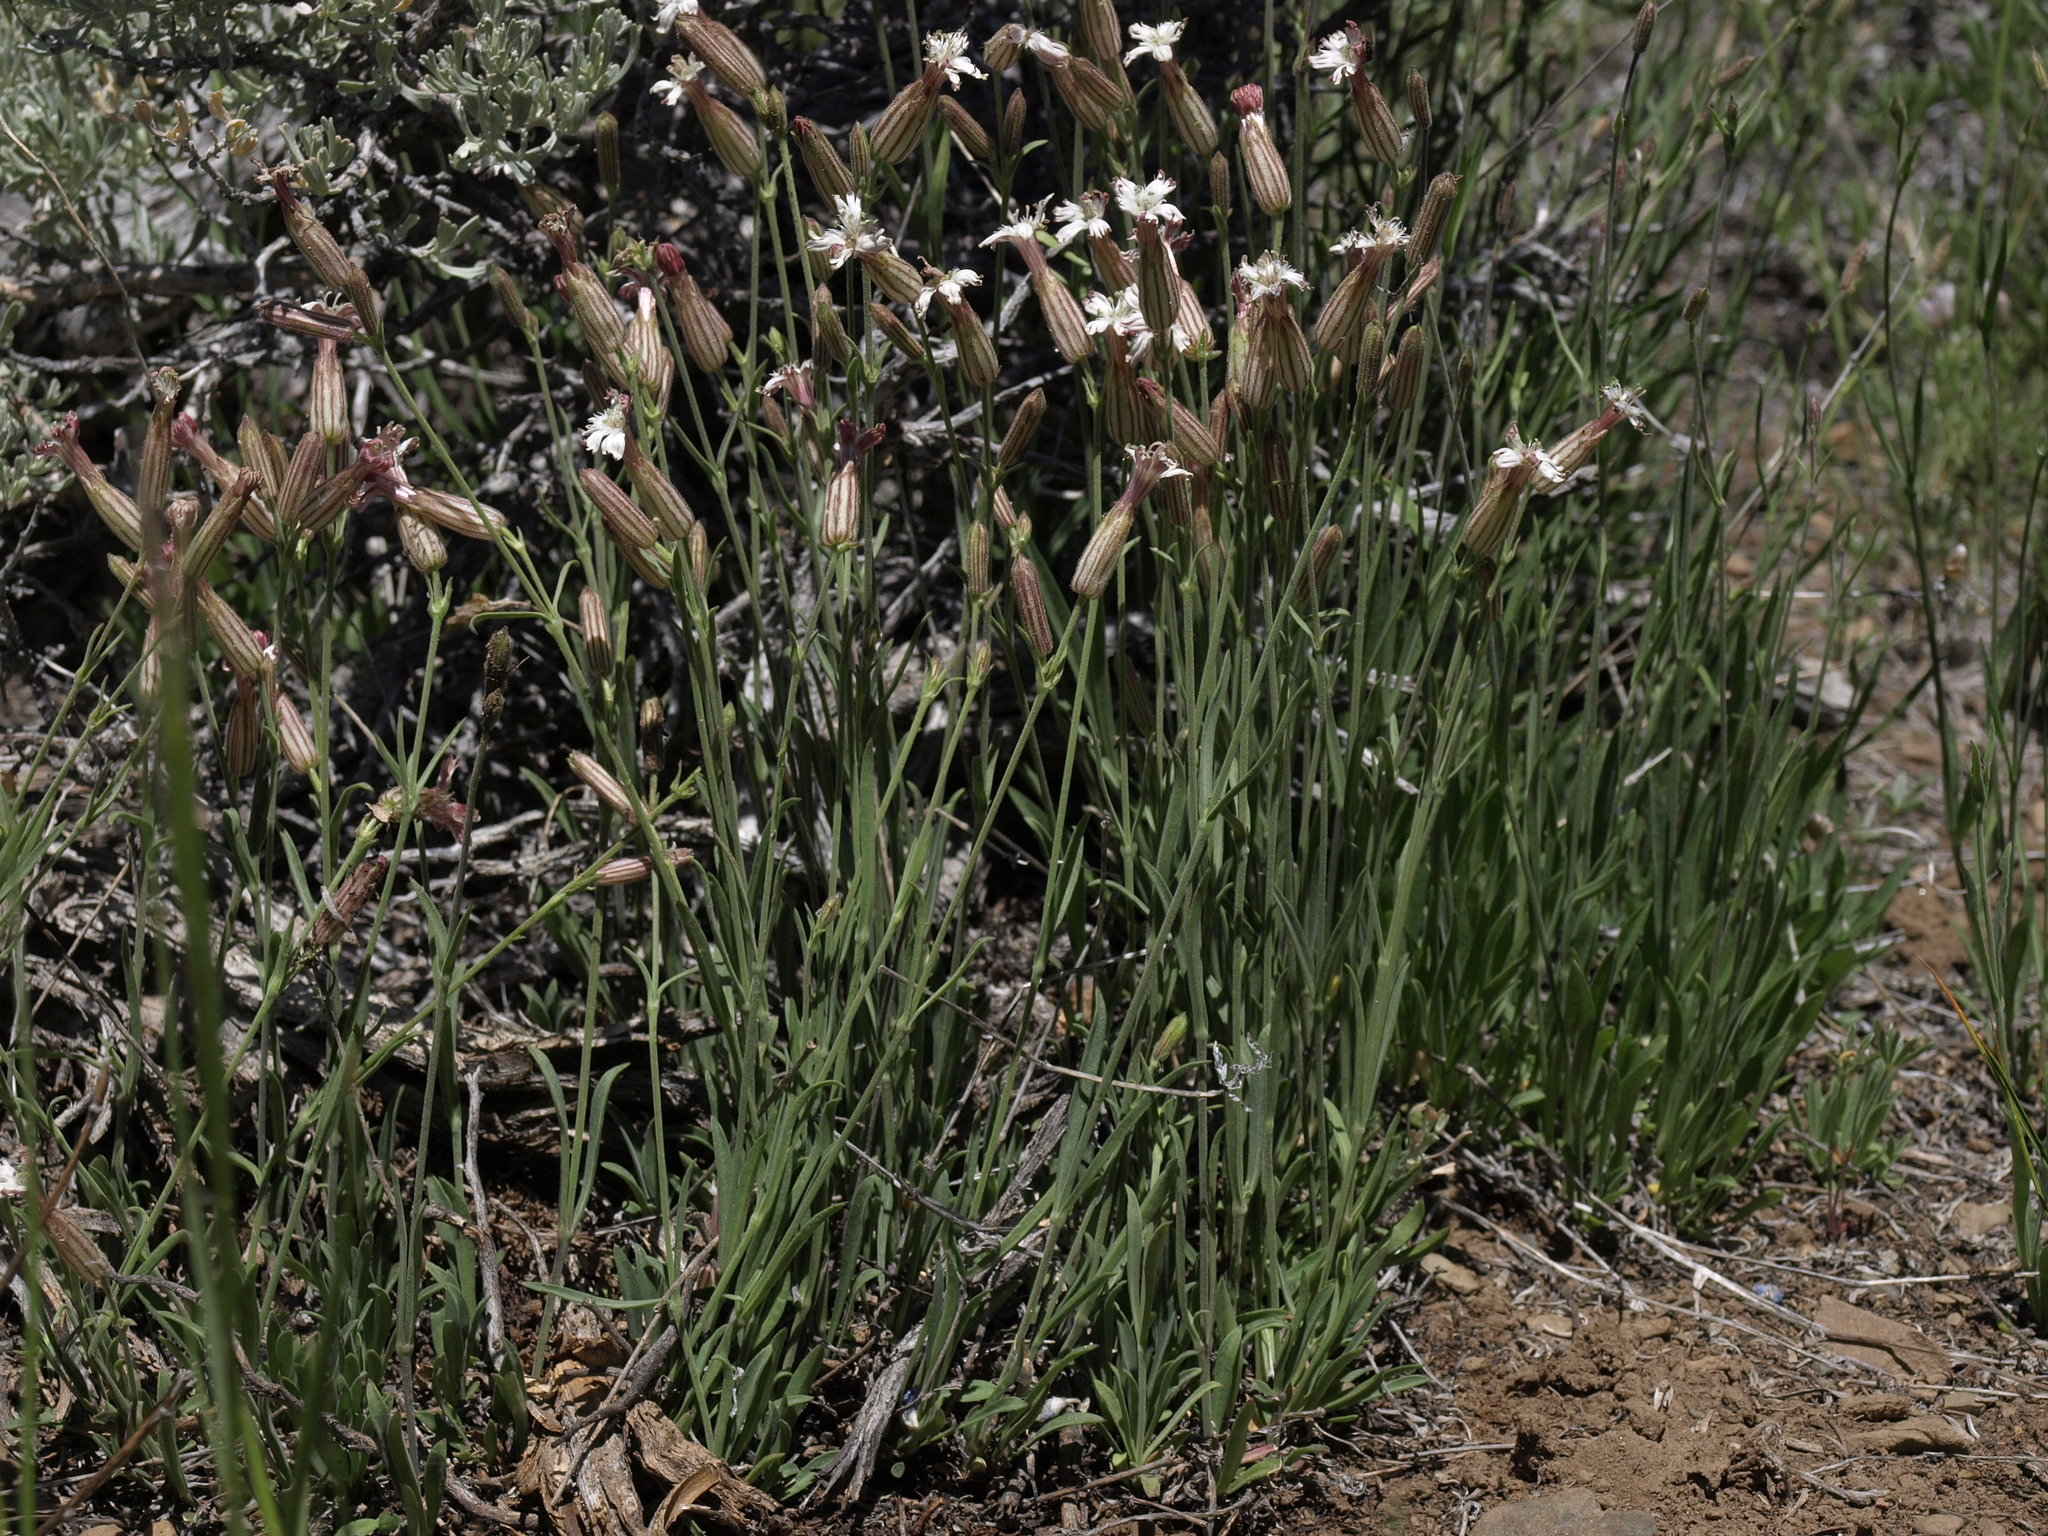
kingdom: Plantae
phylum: Tracheophyta
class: Magnoliopsida
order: Caryophyllales
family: Caryophyllaceae
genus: Silene
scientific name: Silene bernardina
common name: Palmer's catchfly
